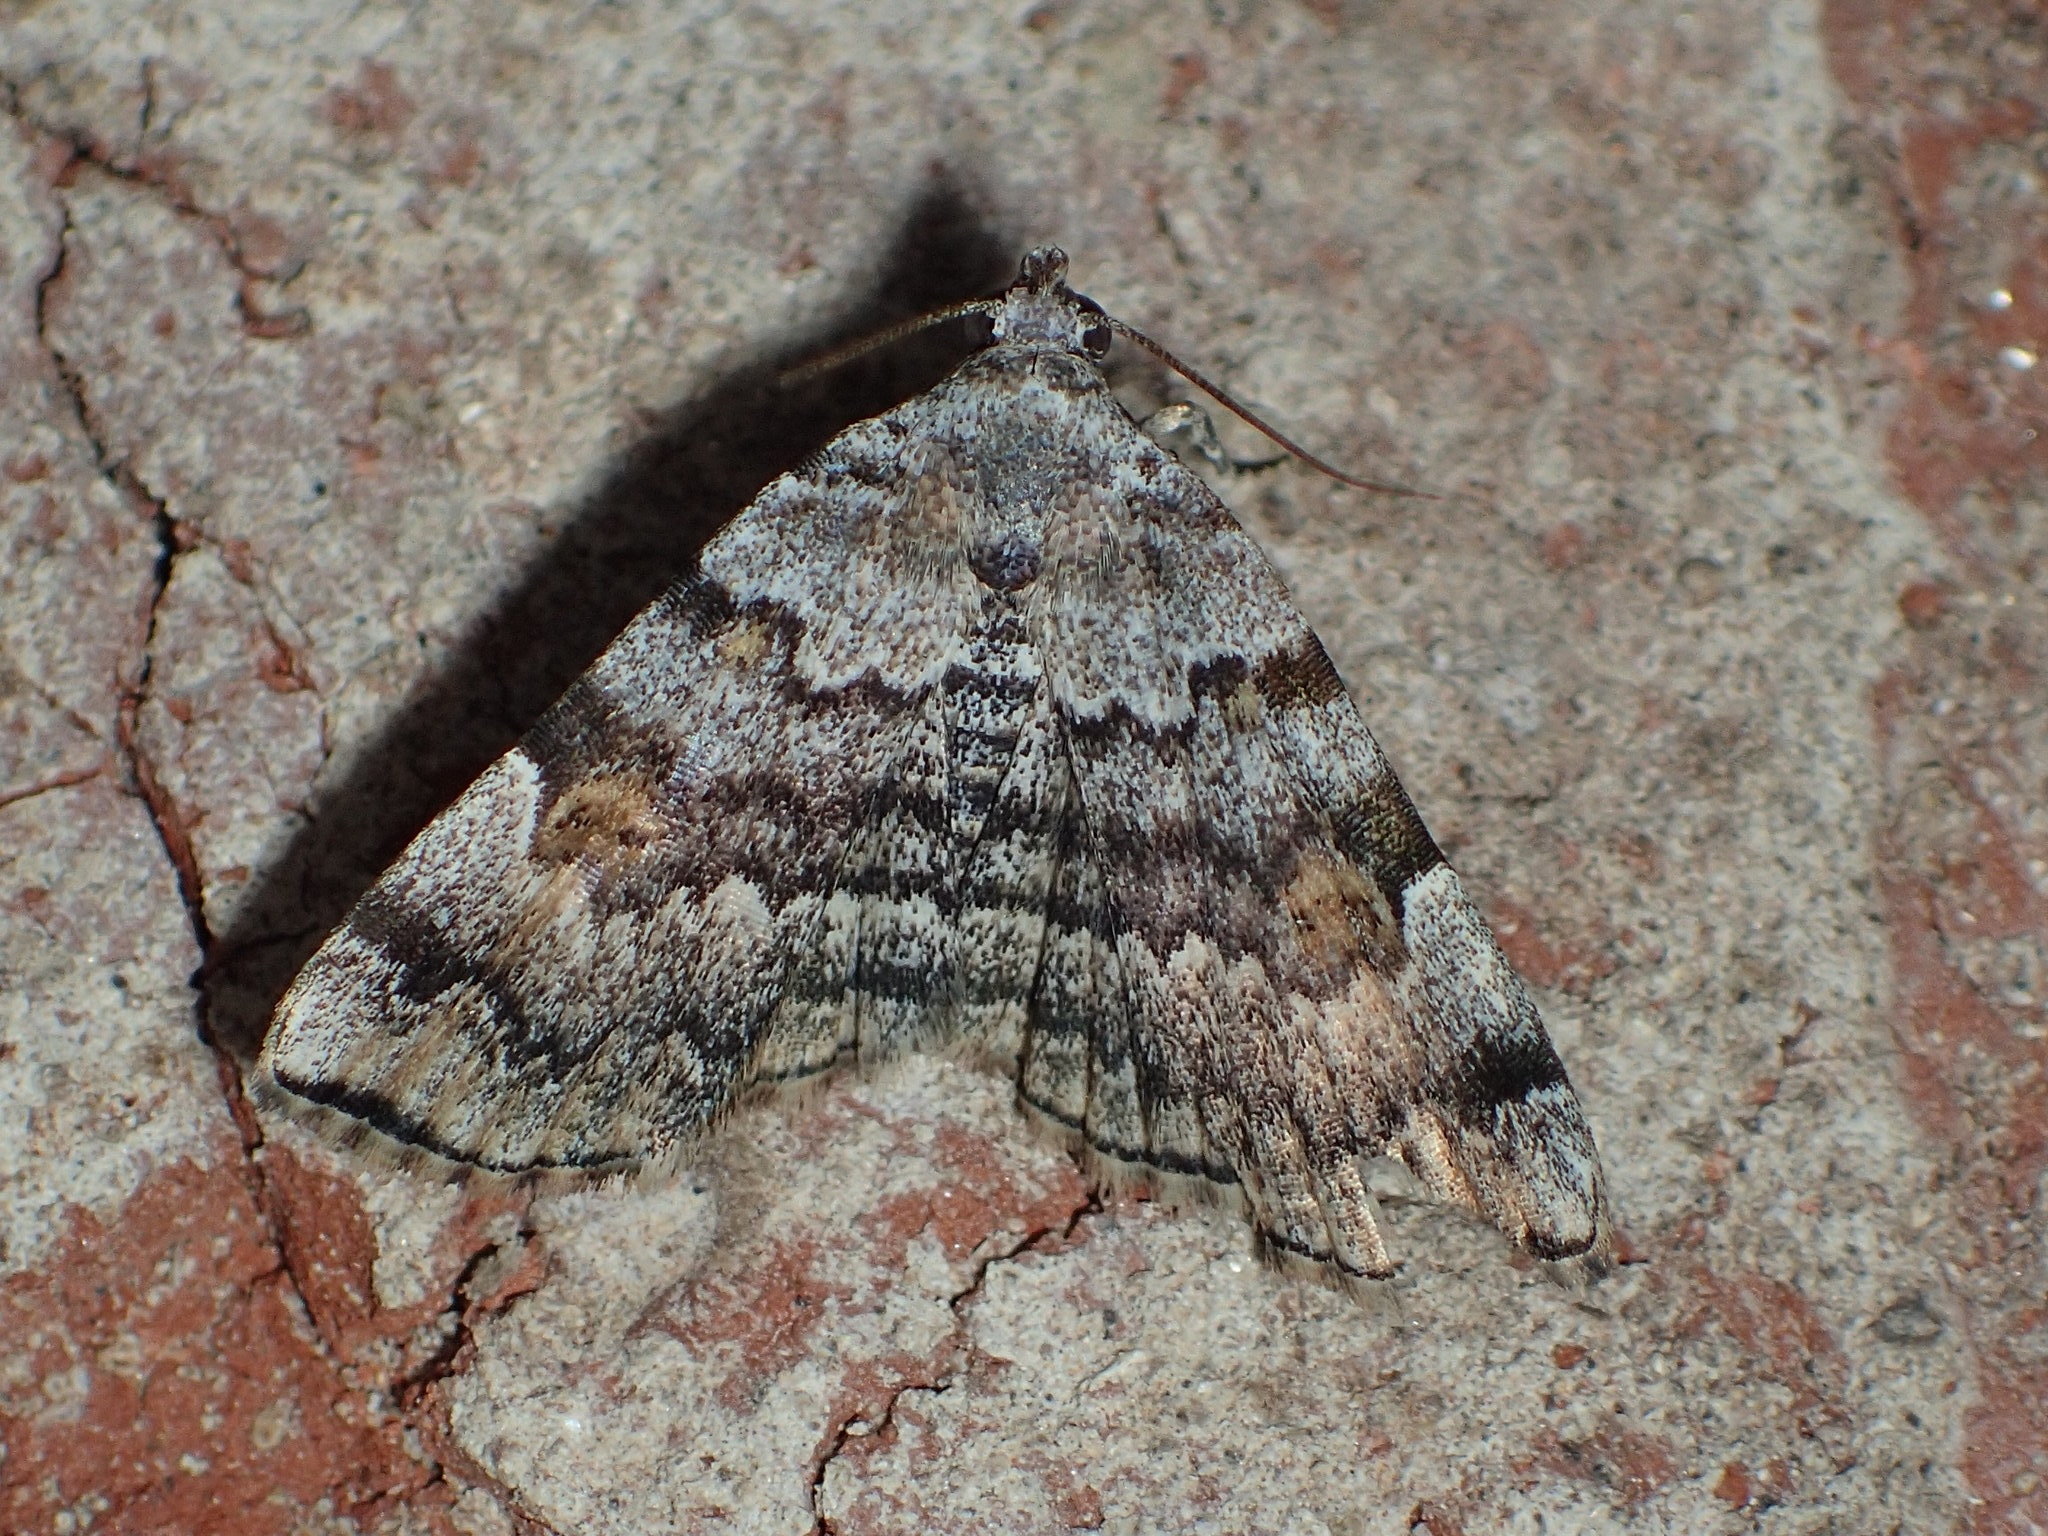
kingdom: Animalia
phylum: Arthropoda
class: Insecta
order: Lepidoptera
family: Erebidae
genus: Idia
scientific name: Idia americalis
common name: American idia moth
